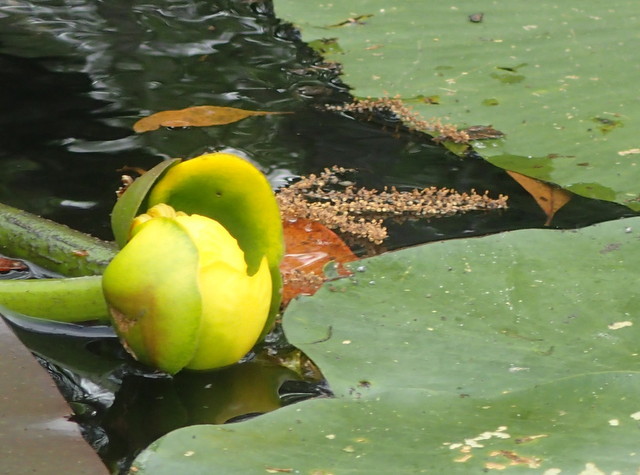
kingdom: Plantae
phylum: Tracheophyta
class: Magnoliopsida
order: Nymphaeales
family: Nymphaeaceae
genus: Nuphar
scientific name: Nuphar advena
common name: Spatter-dock
